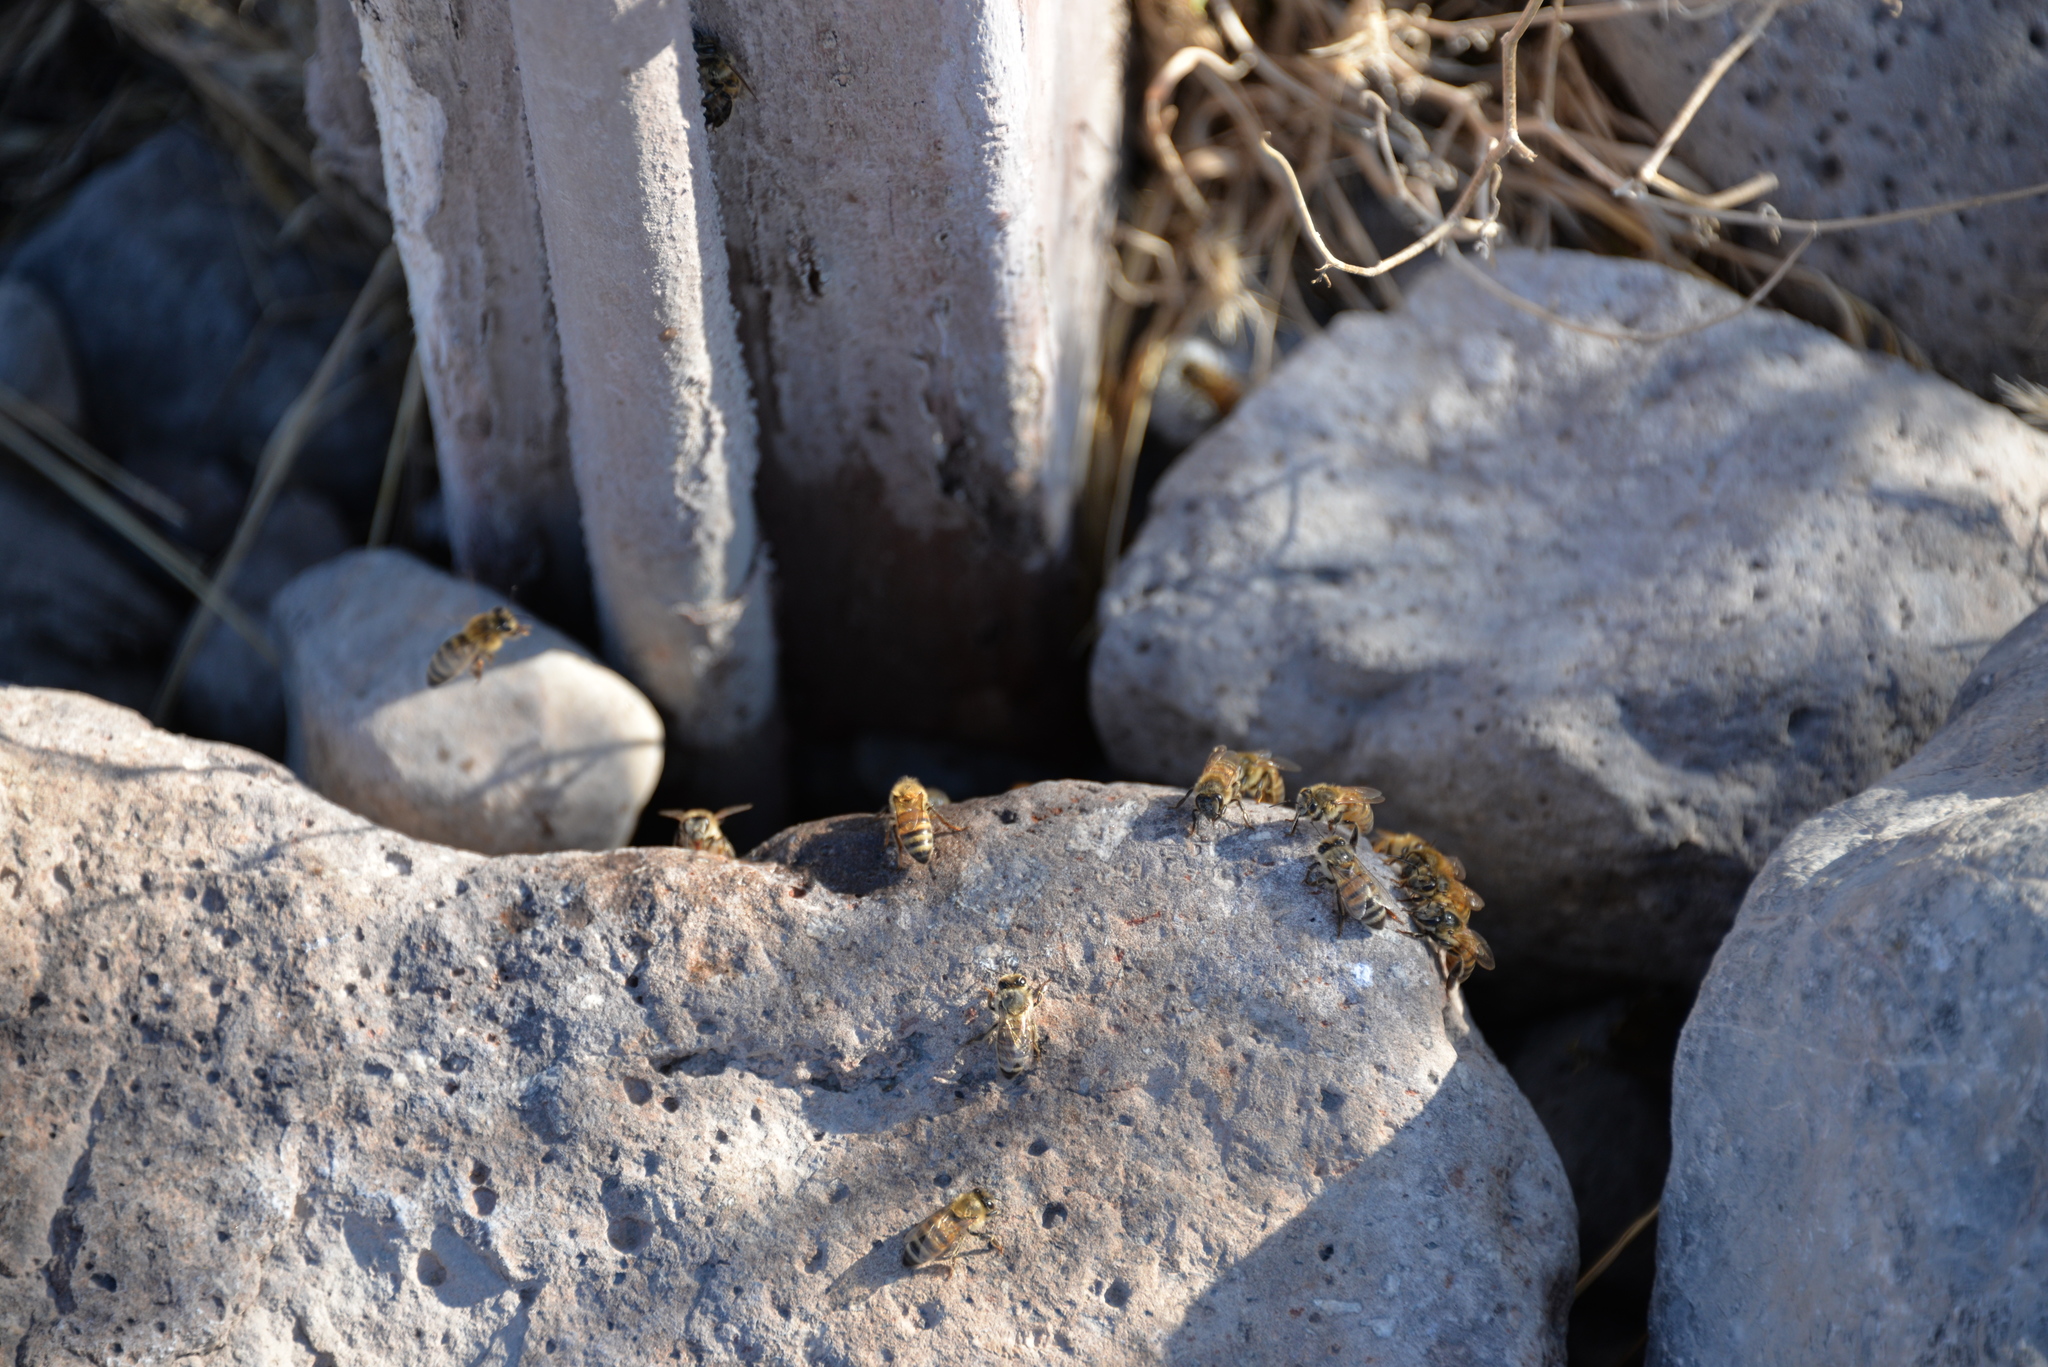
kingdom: Animalia
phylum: Arthropoda
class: Insecta
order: Hymenoptera
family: Apidae
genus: Apis
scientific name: Apis mellifera
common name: Honey bee
